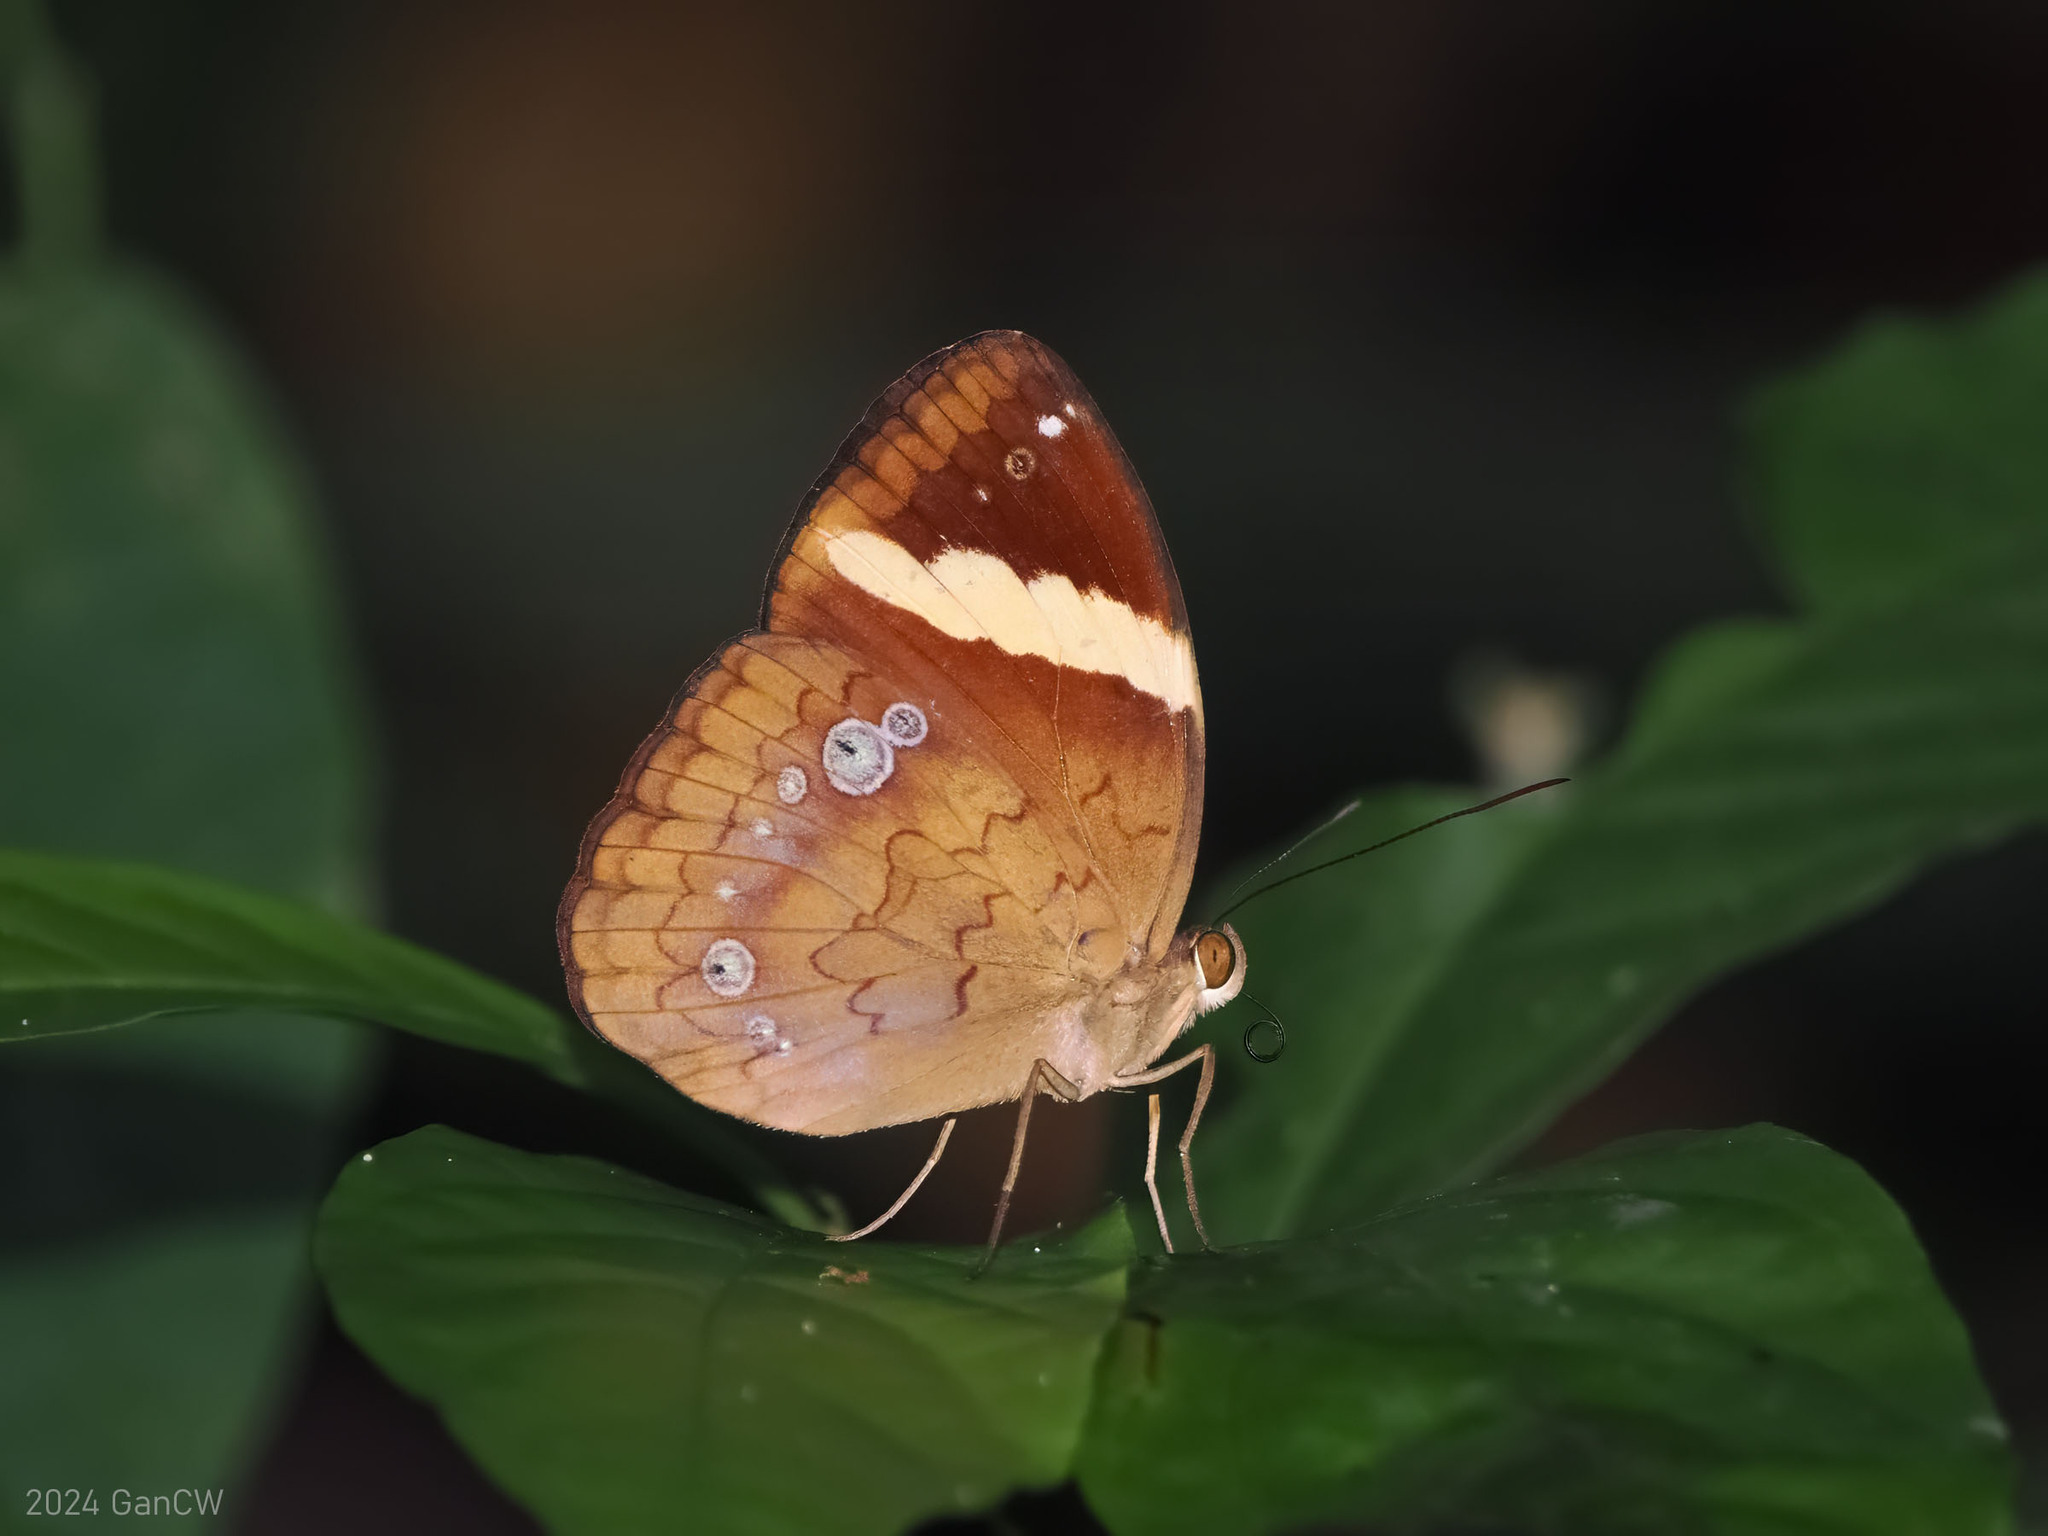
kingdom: Animalia
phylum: Arthropoda
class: Insecta
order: Lepidoptera
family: Nymphalidae
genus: Xanthotaenia
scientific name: Xanthotaenia busiris
